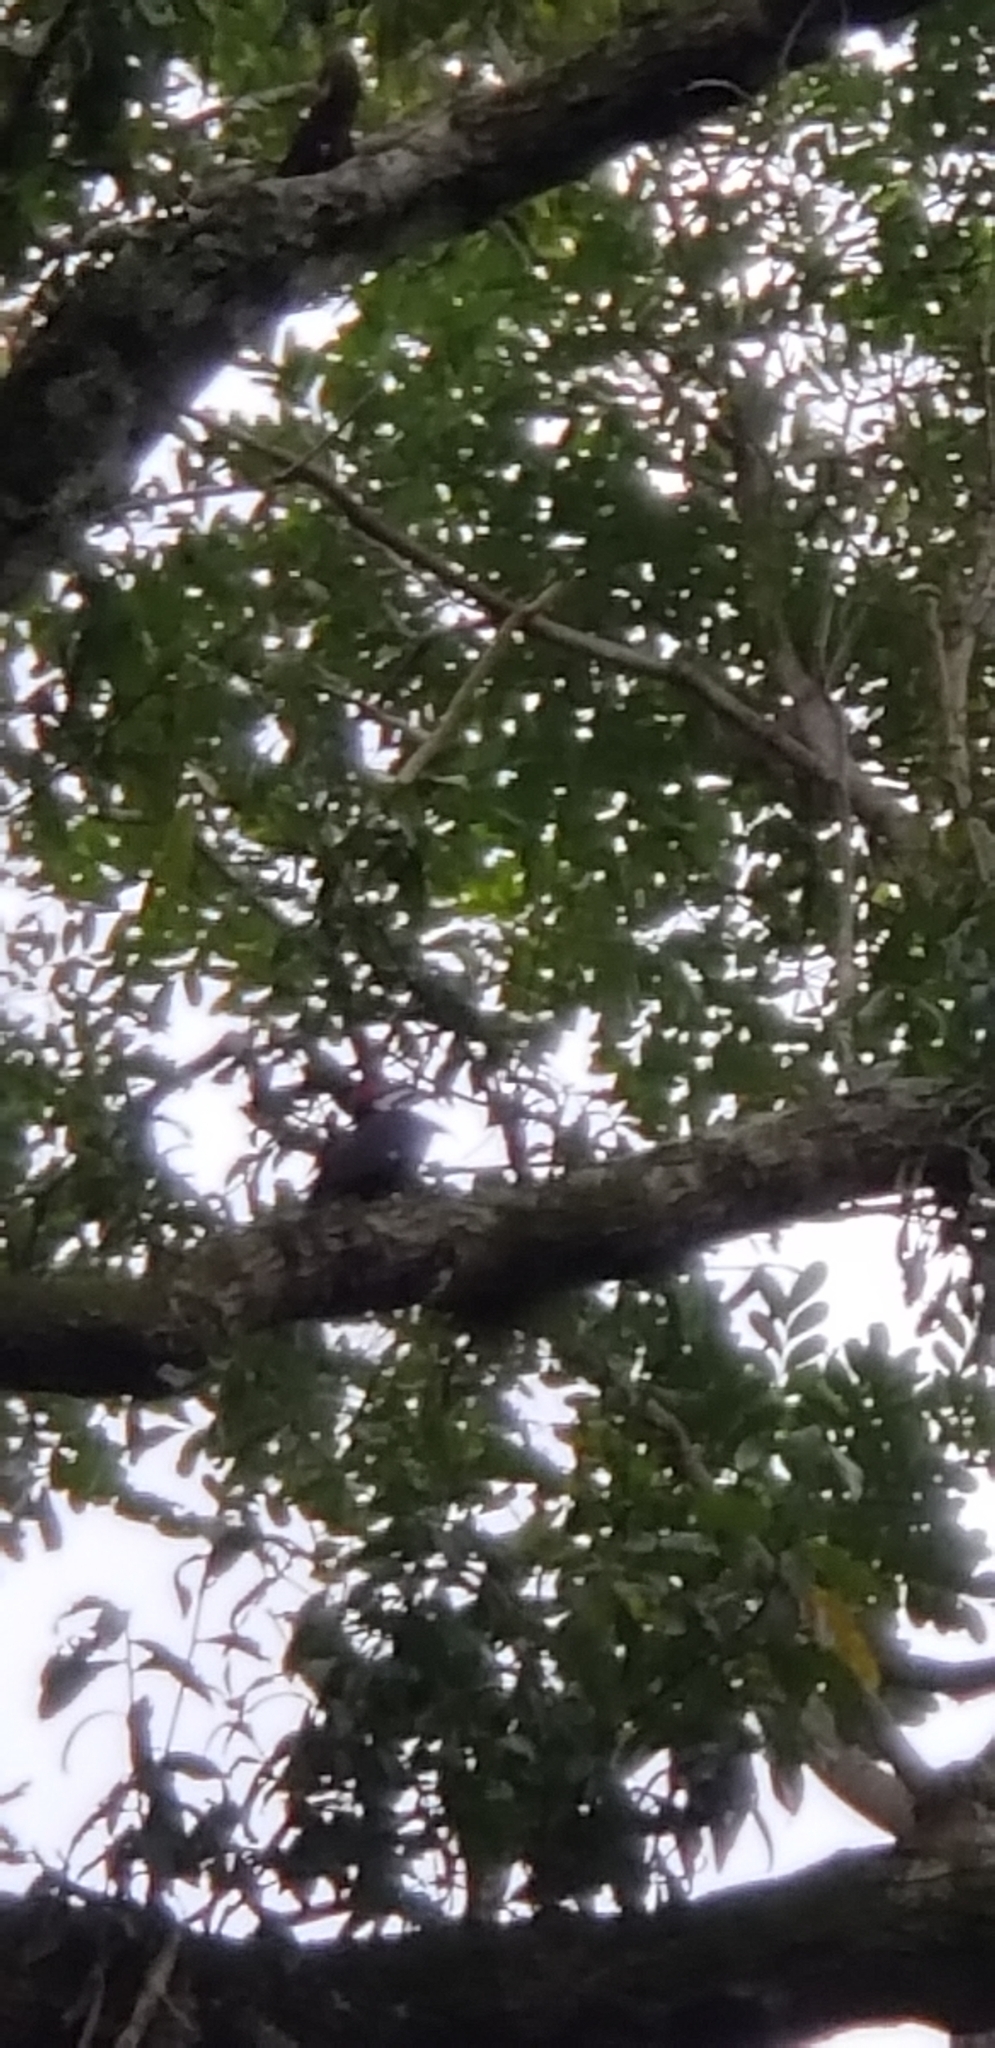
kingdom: Animalia
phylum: Chordata
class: Aves
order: Piciformes
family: Picidae
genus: Dryocopus
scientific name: Dryocopus pileatus
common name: Pileated woodpecker
